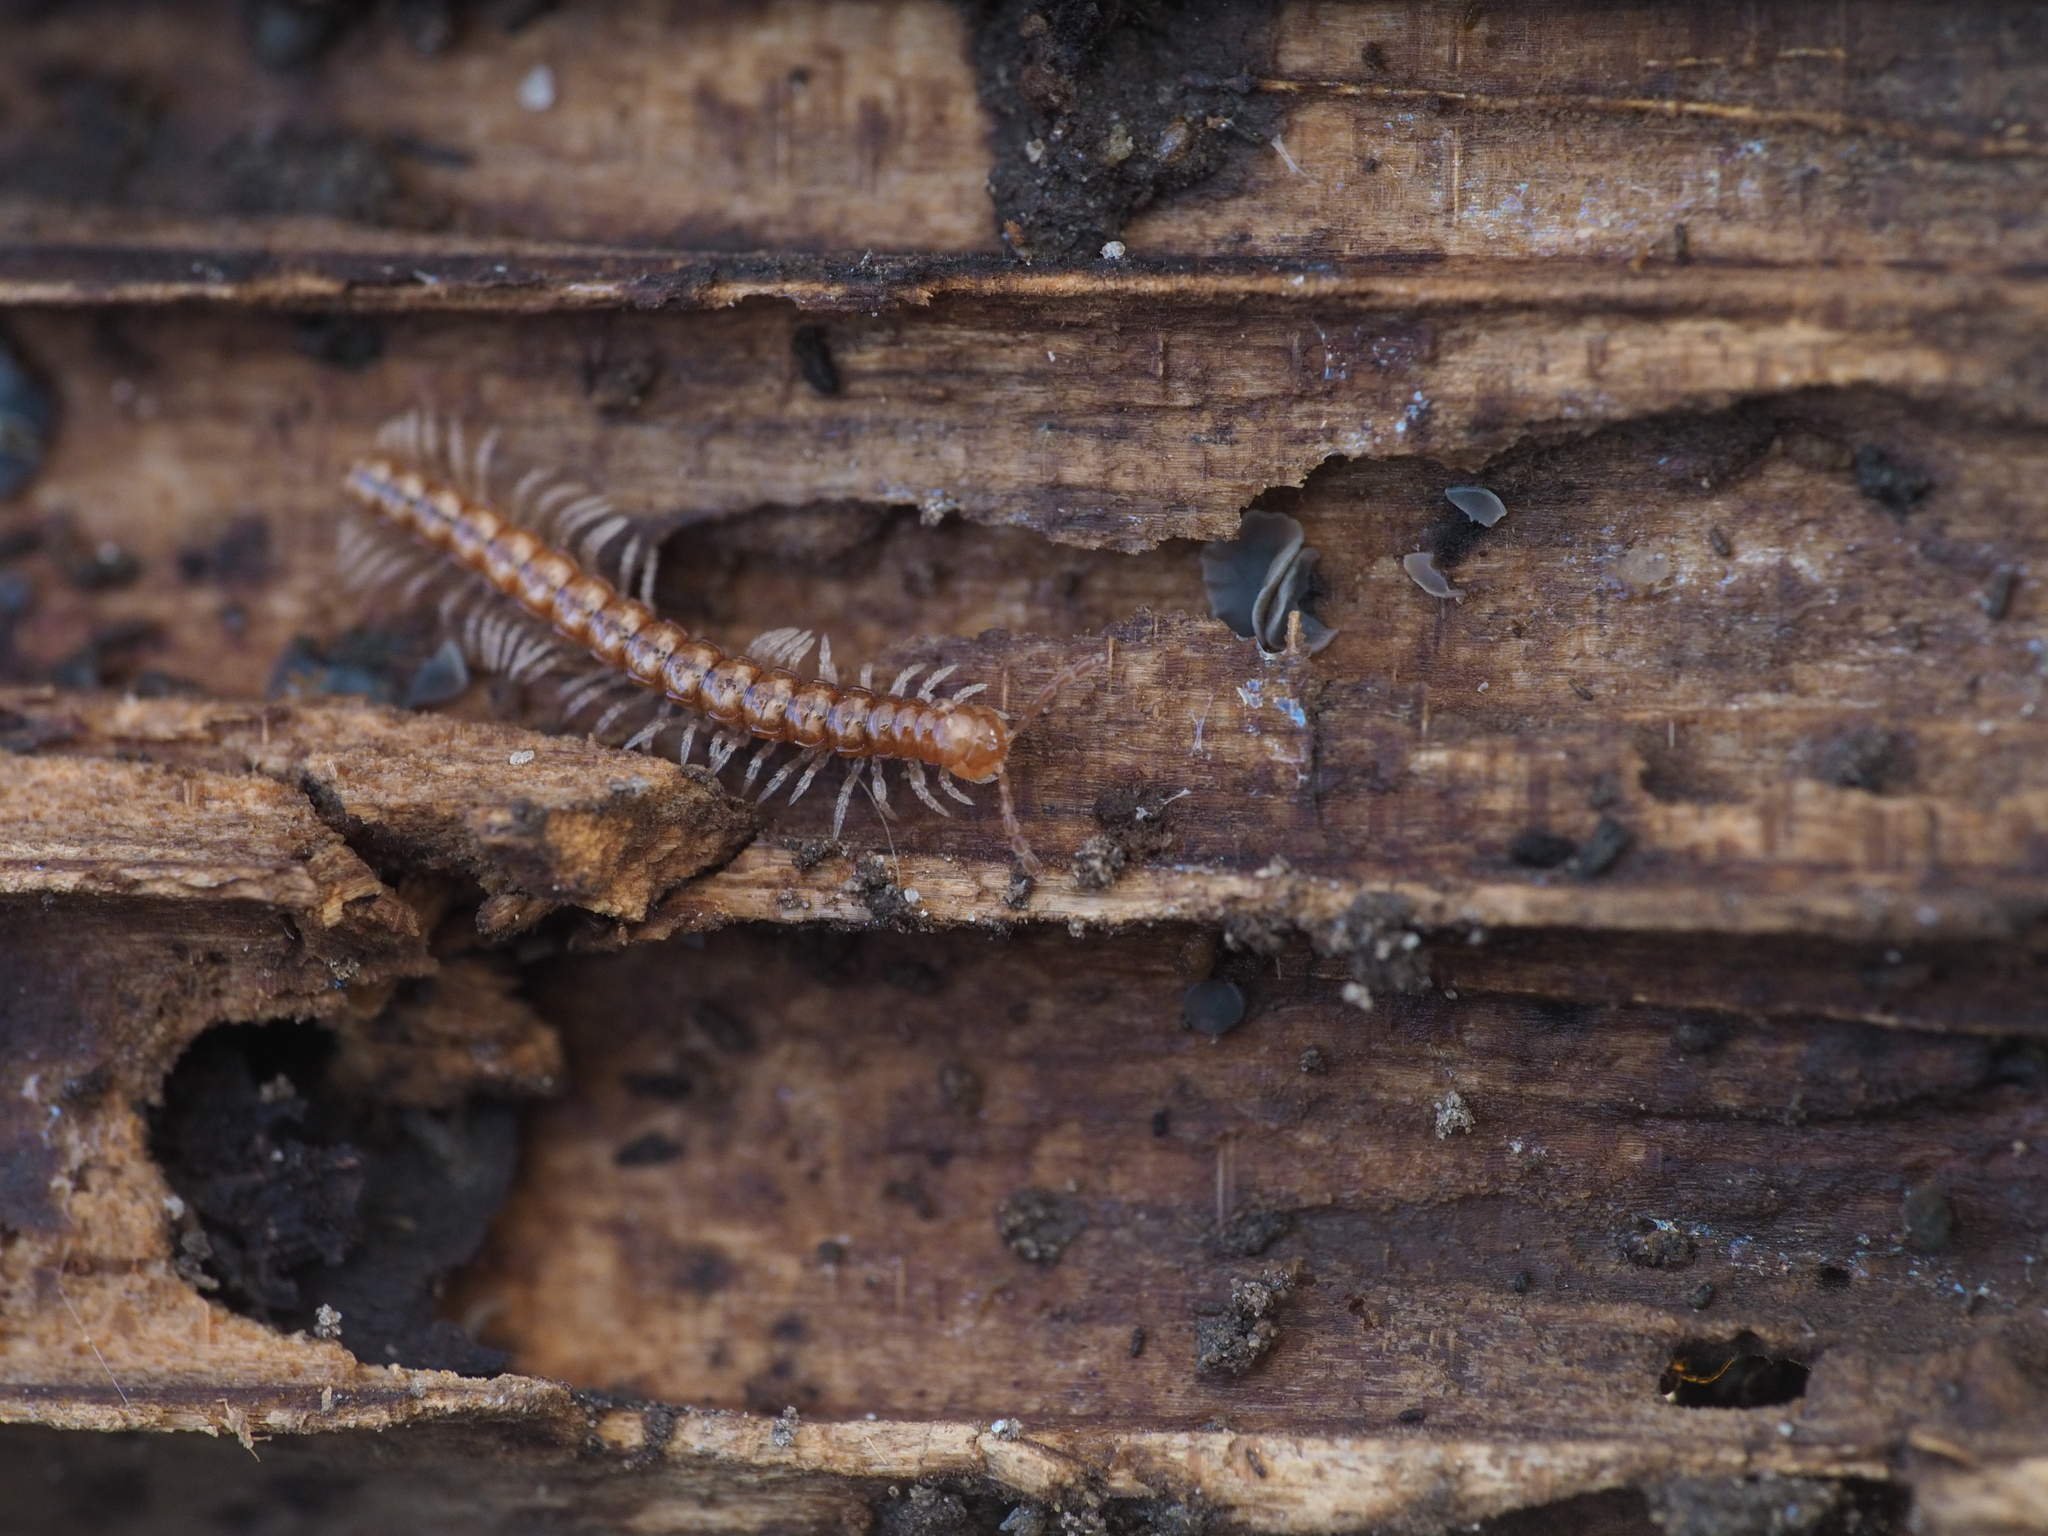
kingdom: Animalia
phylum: Arthropoda
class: Diplopoda
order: Polydesmida
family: Paradoxosomatidae
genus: Stosatea
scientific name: Stosatea italicum
